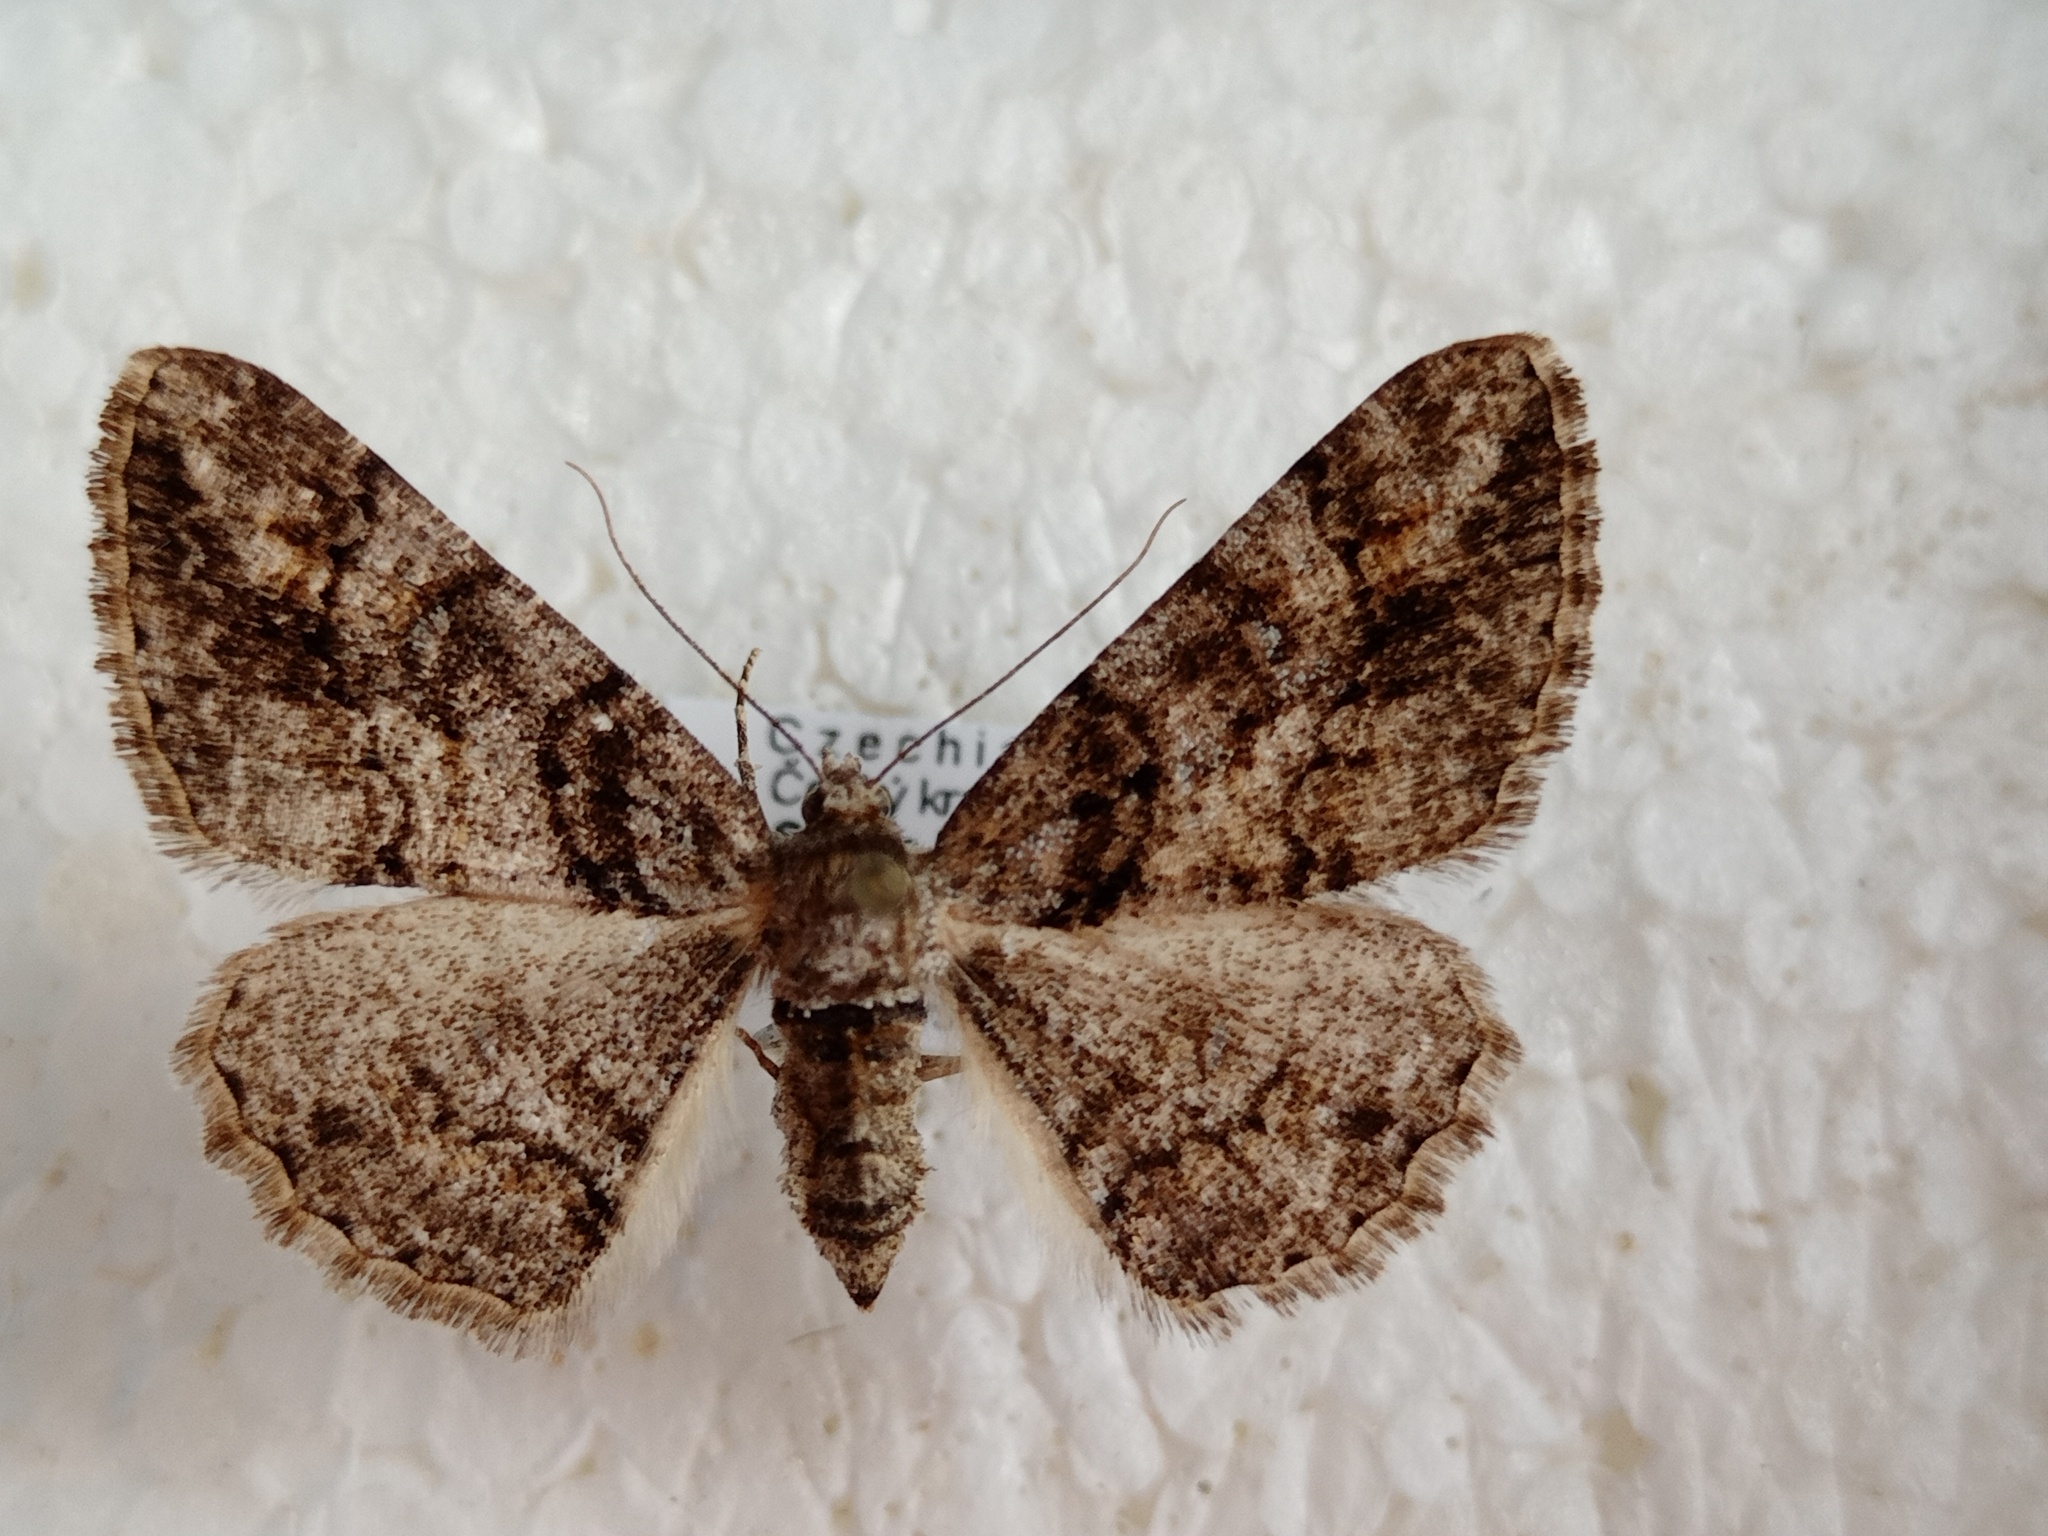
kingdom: Animalia
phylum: Arthropoda
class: Insecta
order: Lepidoptera
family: Geometridae
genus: Cleora
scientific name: Cleora cinctaria
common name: Ringed carpet
